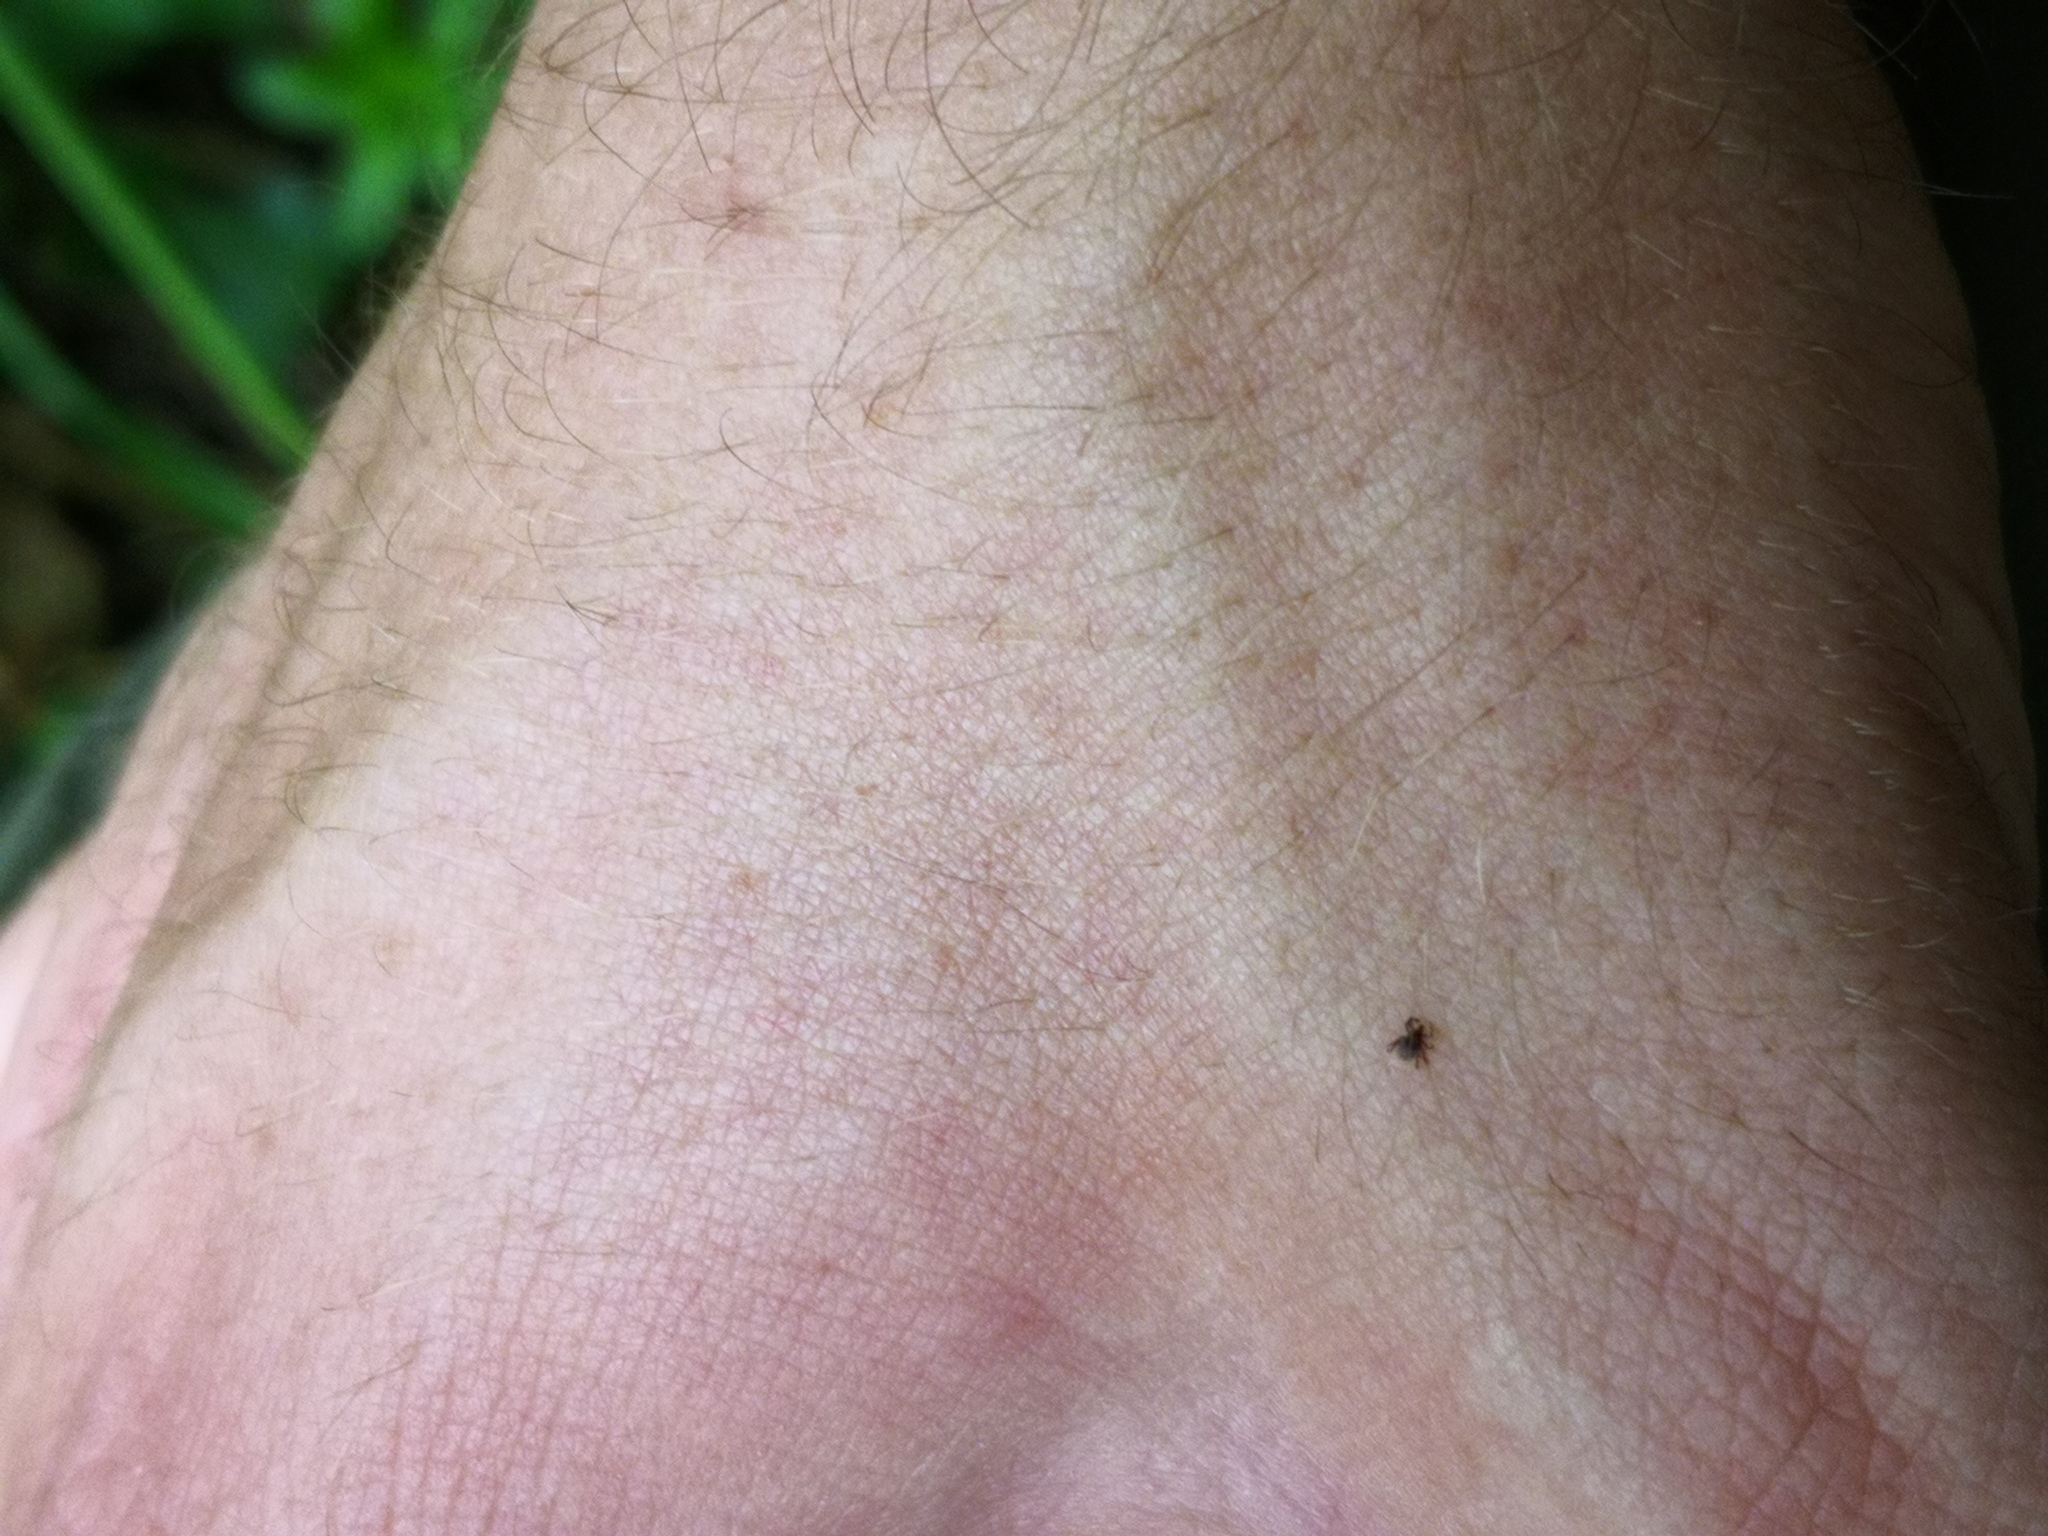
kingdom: Animalia
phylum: Arthropoda
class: Arachnida
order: Ixodida
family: Ixodidae
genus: Ixodes
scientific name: Ixodes ricinus
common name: Castor bean tick
